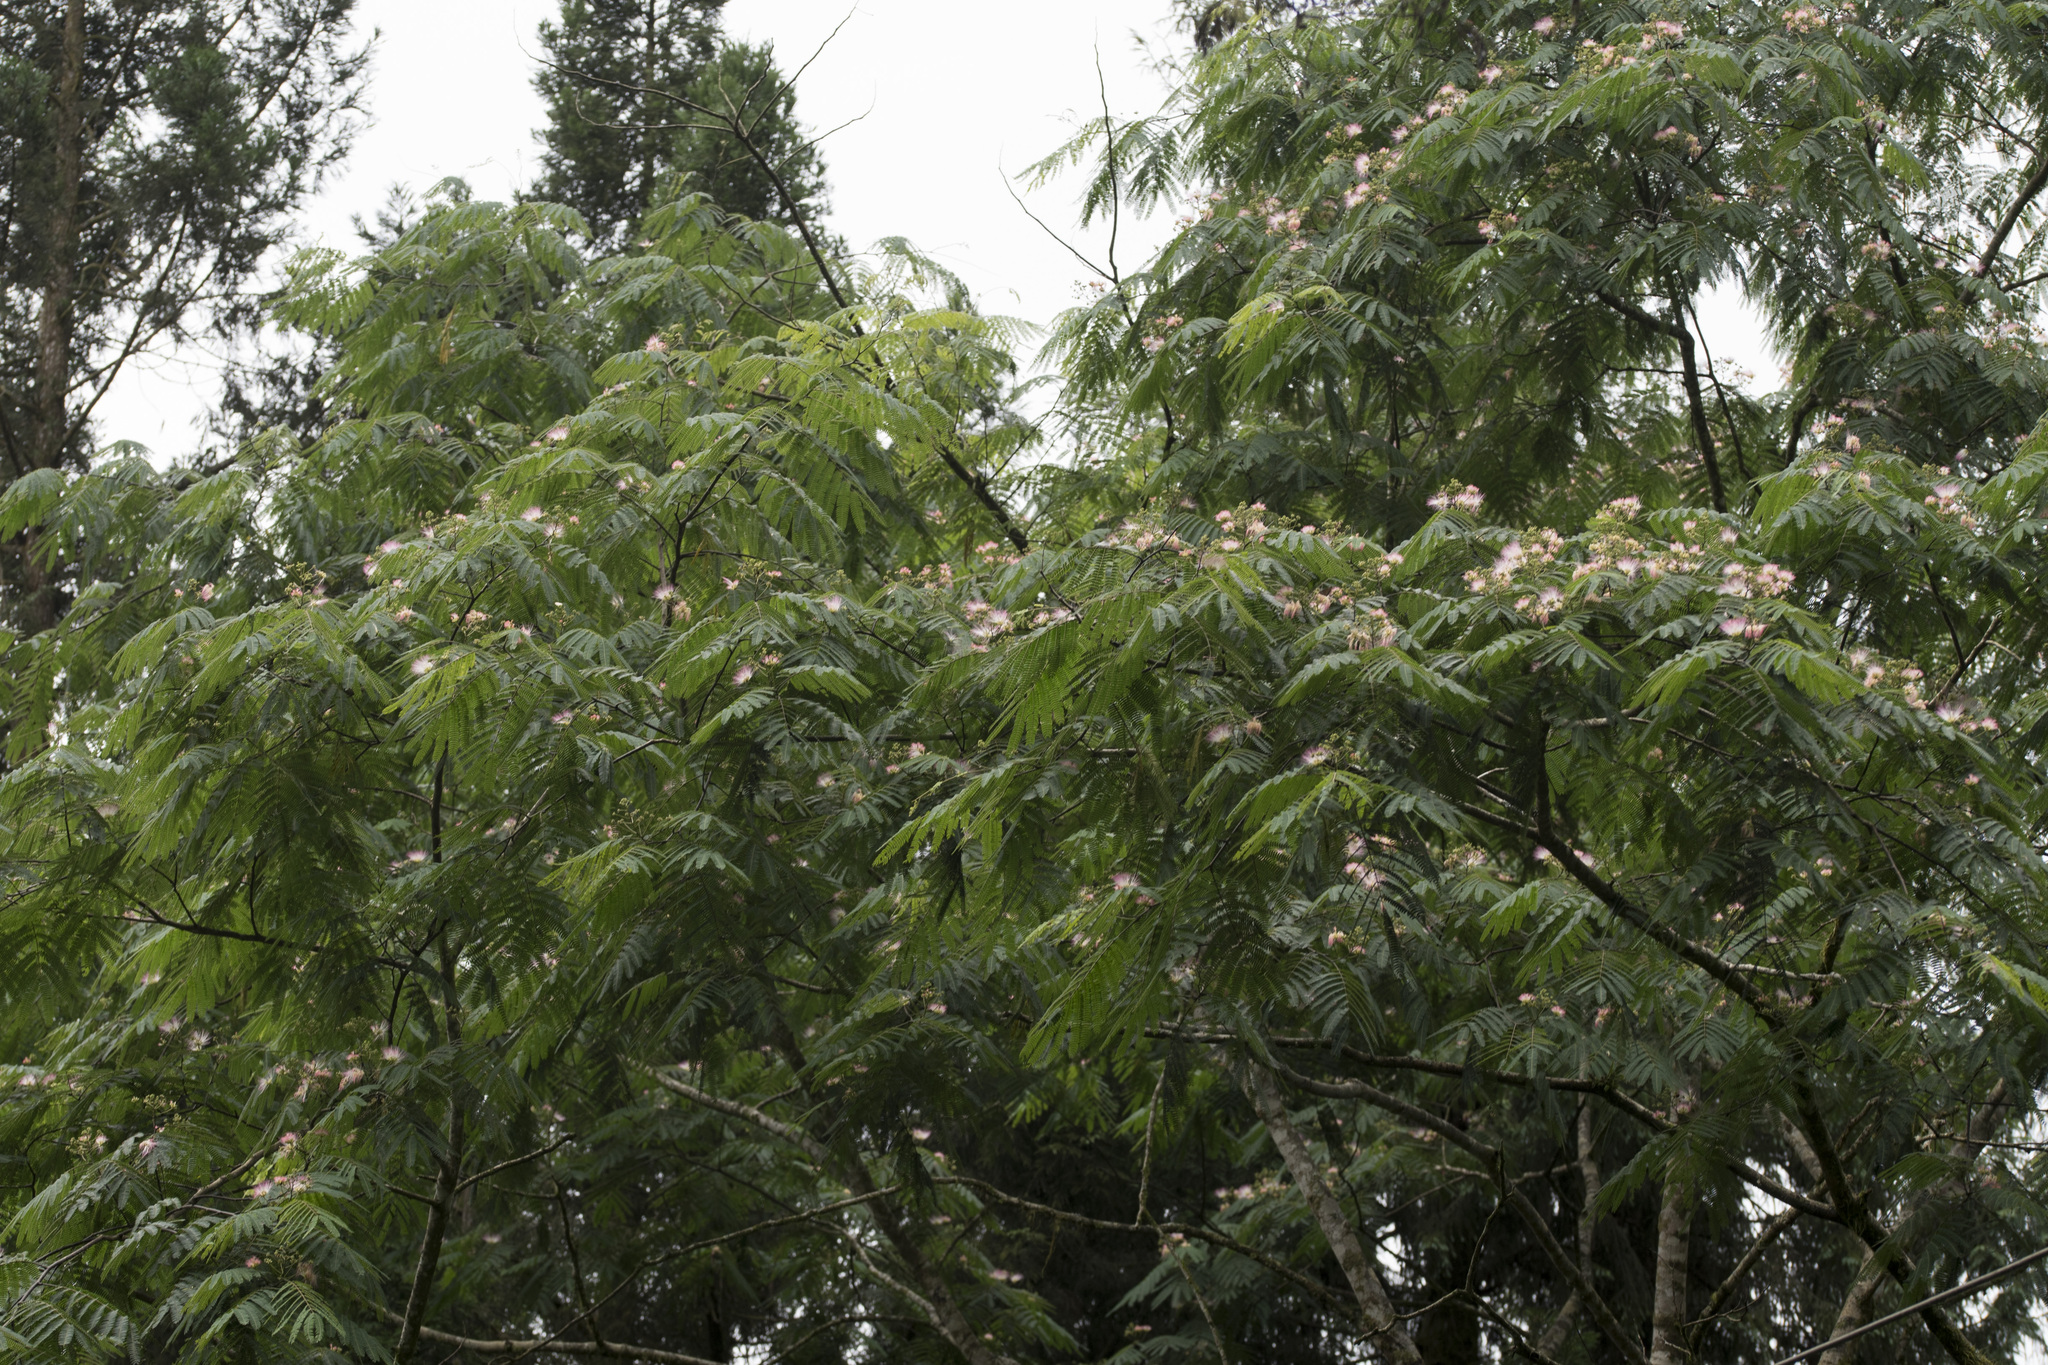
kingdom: Plantae
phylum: Tracheophyta
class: Magnoliopsida
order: Fabales
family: Fabaceae
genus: Albizia
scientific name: Albizia julibrissin
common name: Silktree
